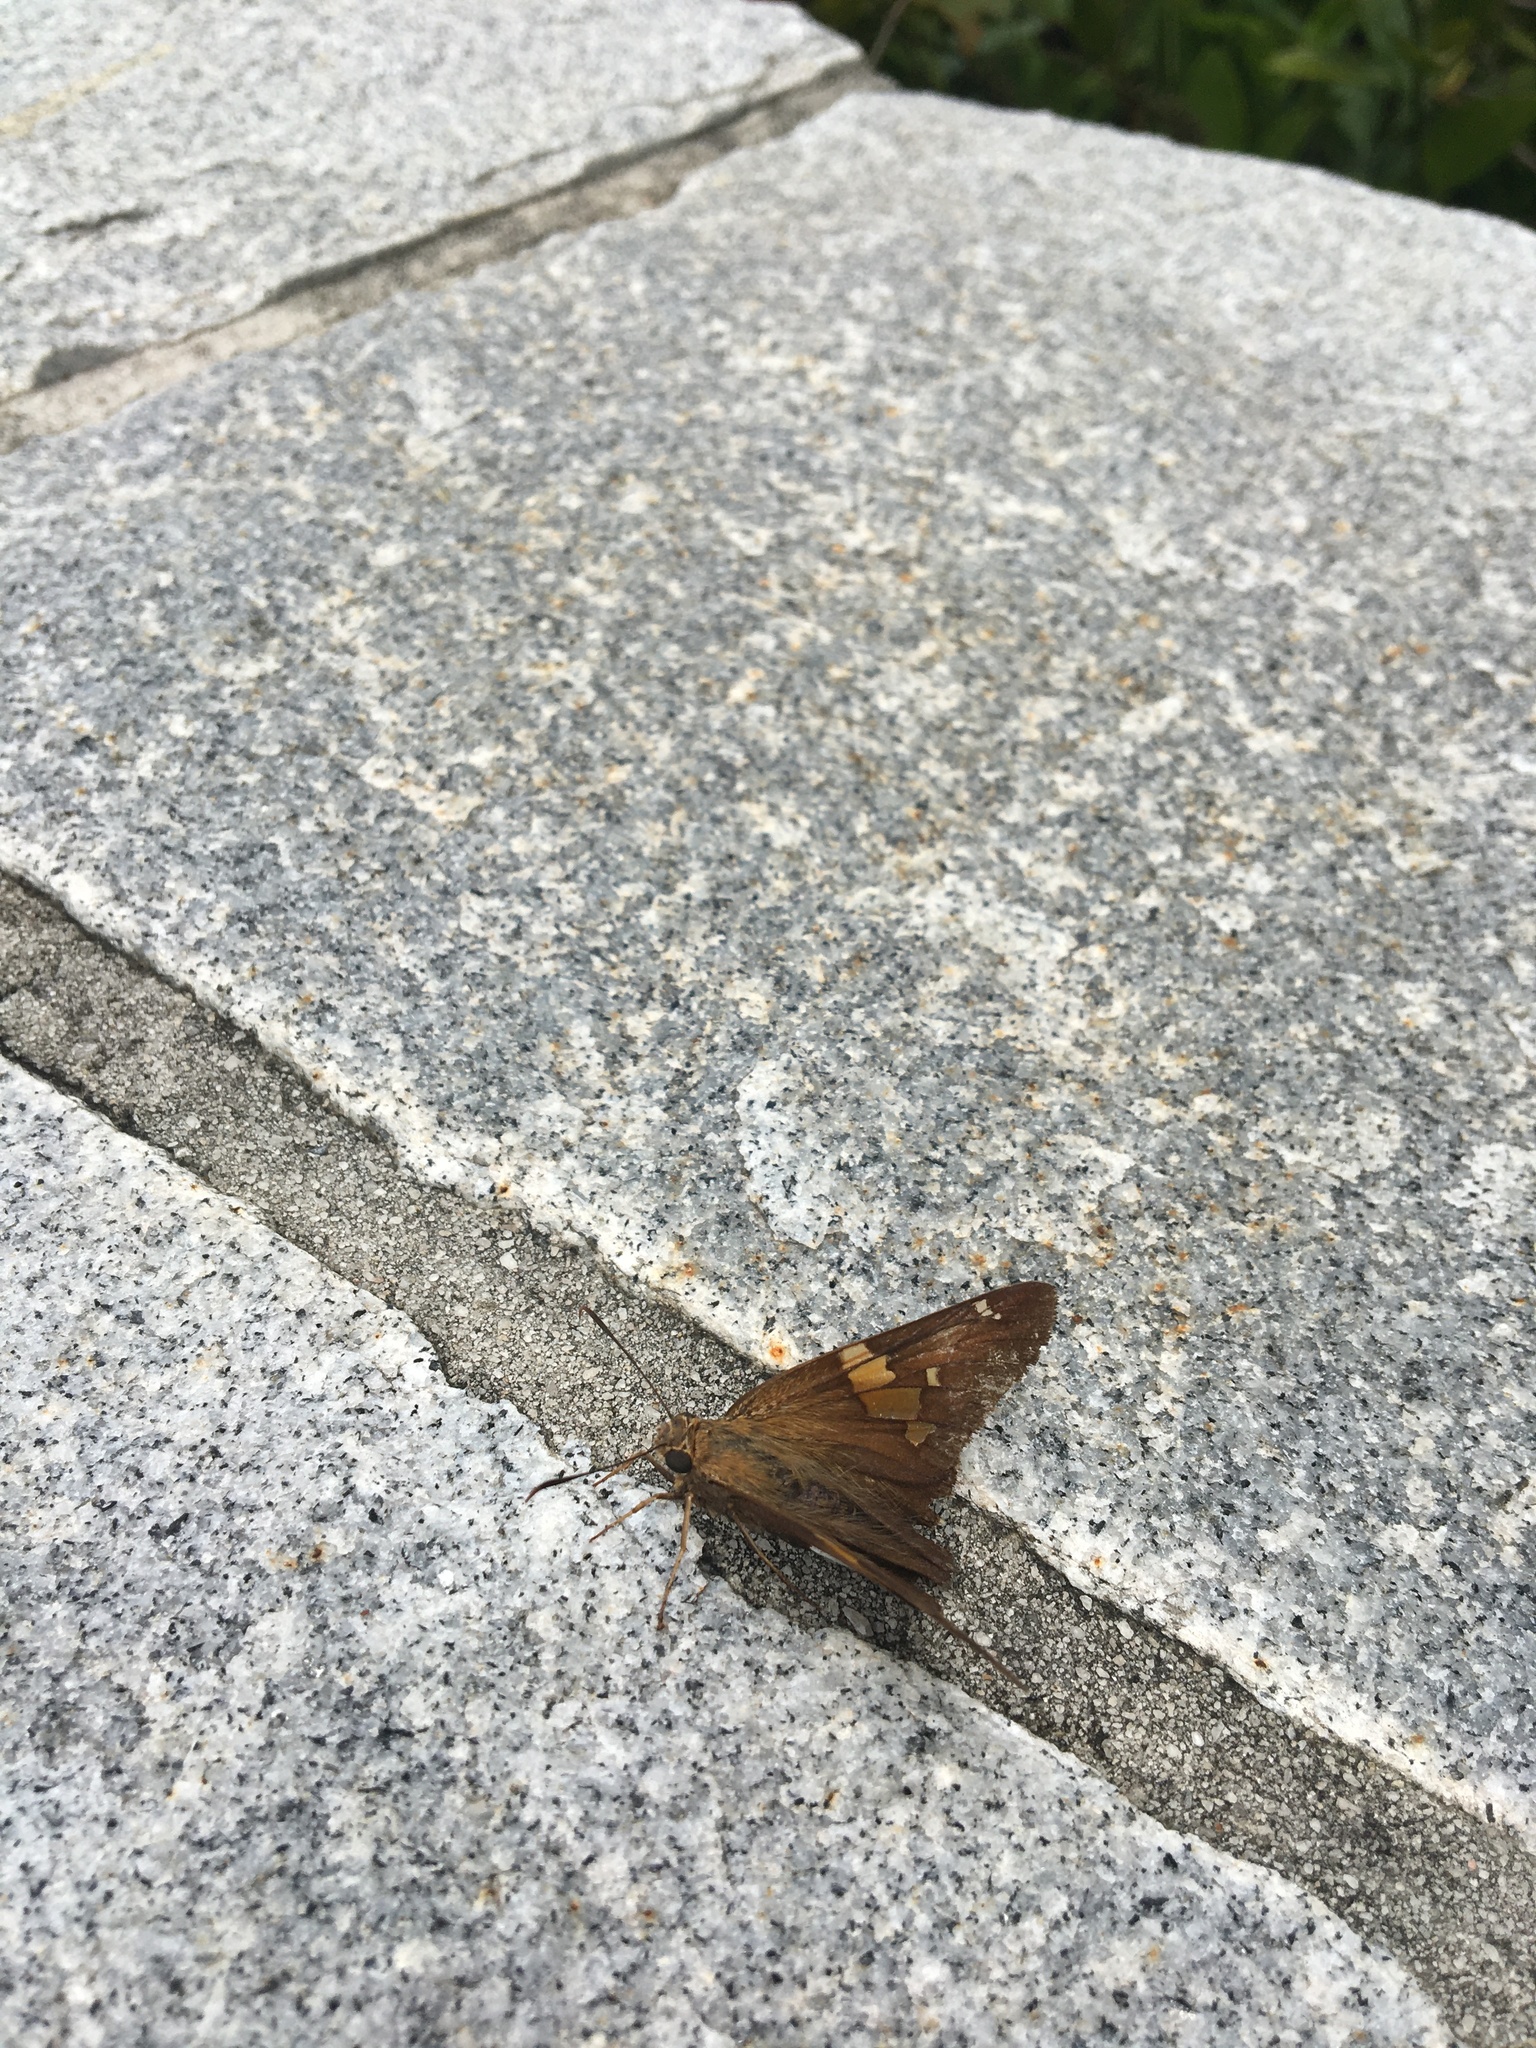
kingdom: Animalia
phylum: Arthropoda
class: Insecta
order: Lepidoptera
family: Hesperiidae
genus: Epargyreus
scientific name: Epargyreus clarus
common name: Silver-spotted skipper
